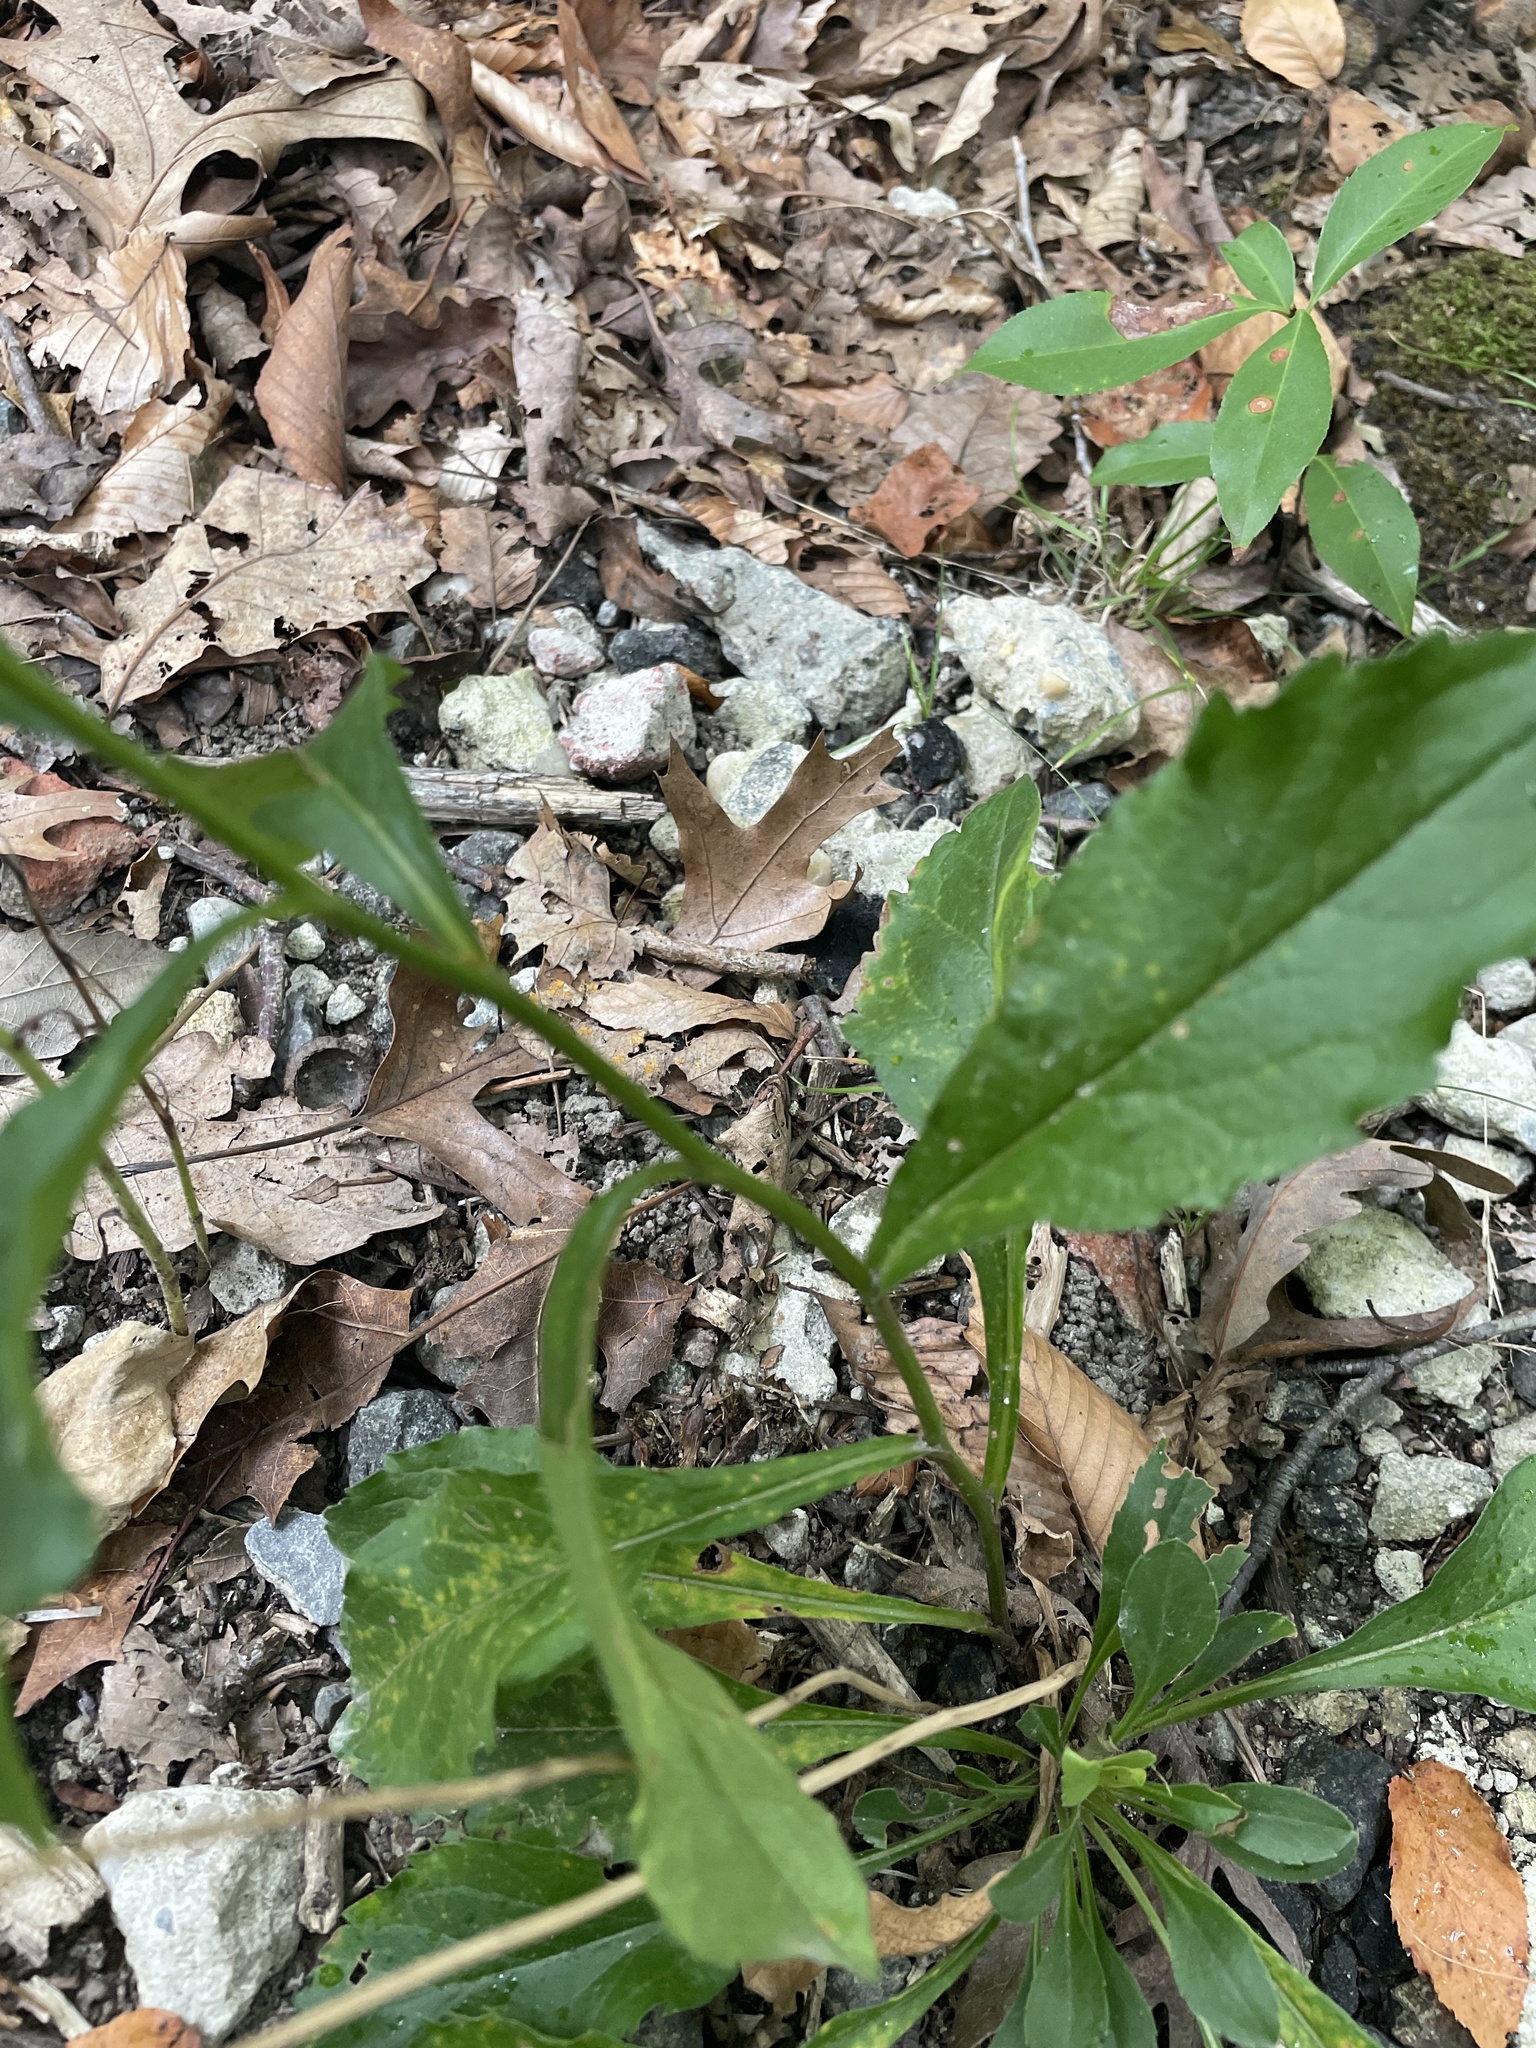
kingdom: Plantae
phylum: Tracheophyta
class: Magnoliopsida
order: Asterales
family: Asteraceae
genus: Solidago
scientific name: Solidago bicolor
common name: Silverrod
